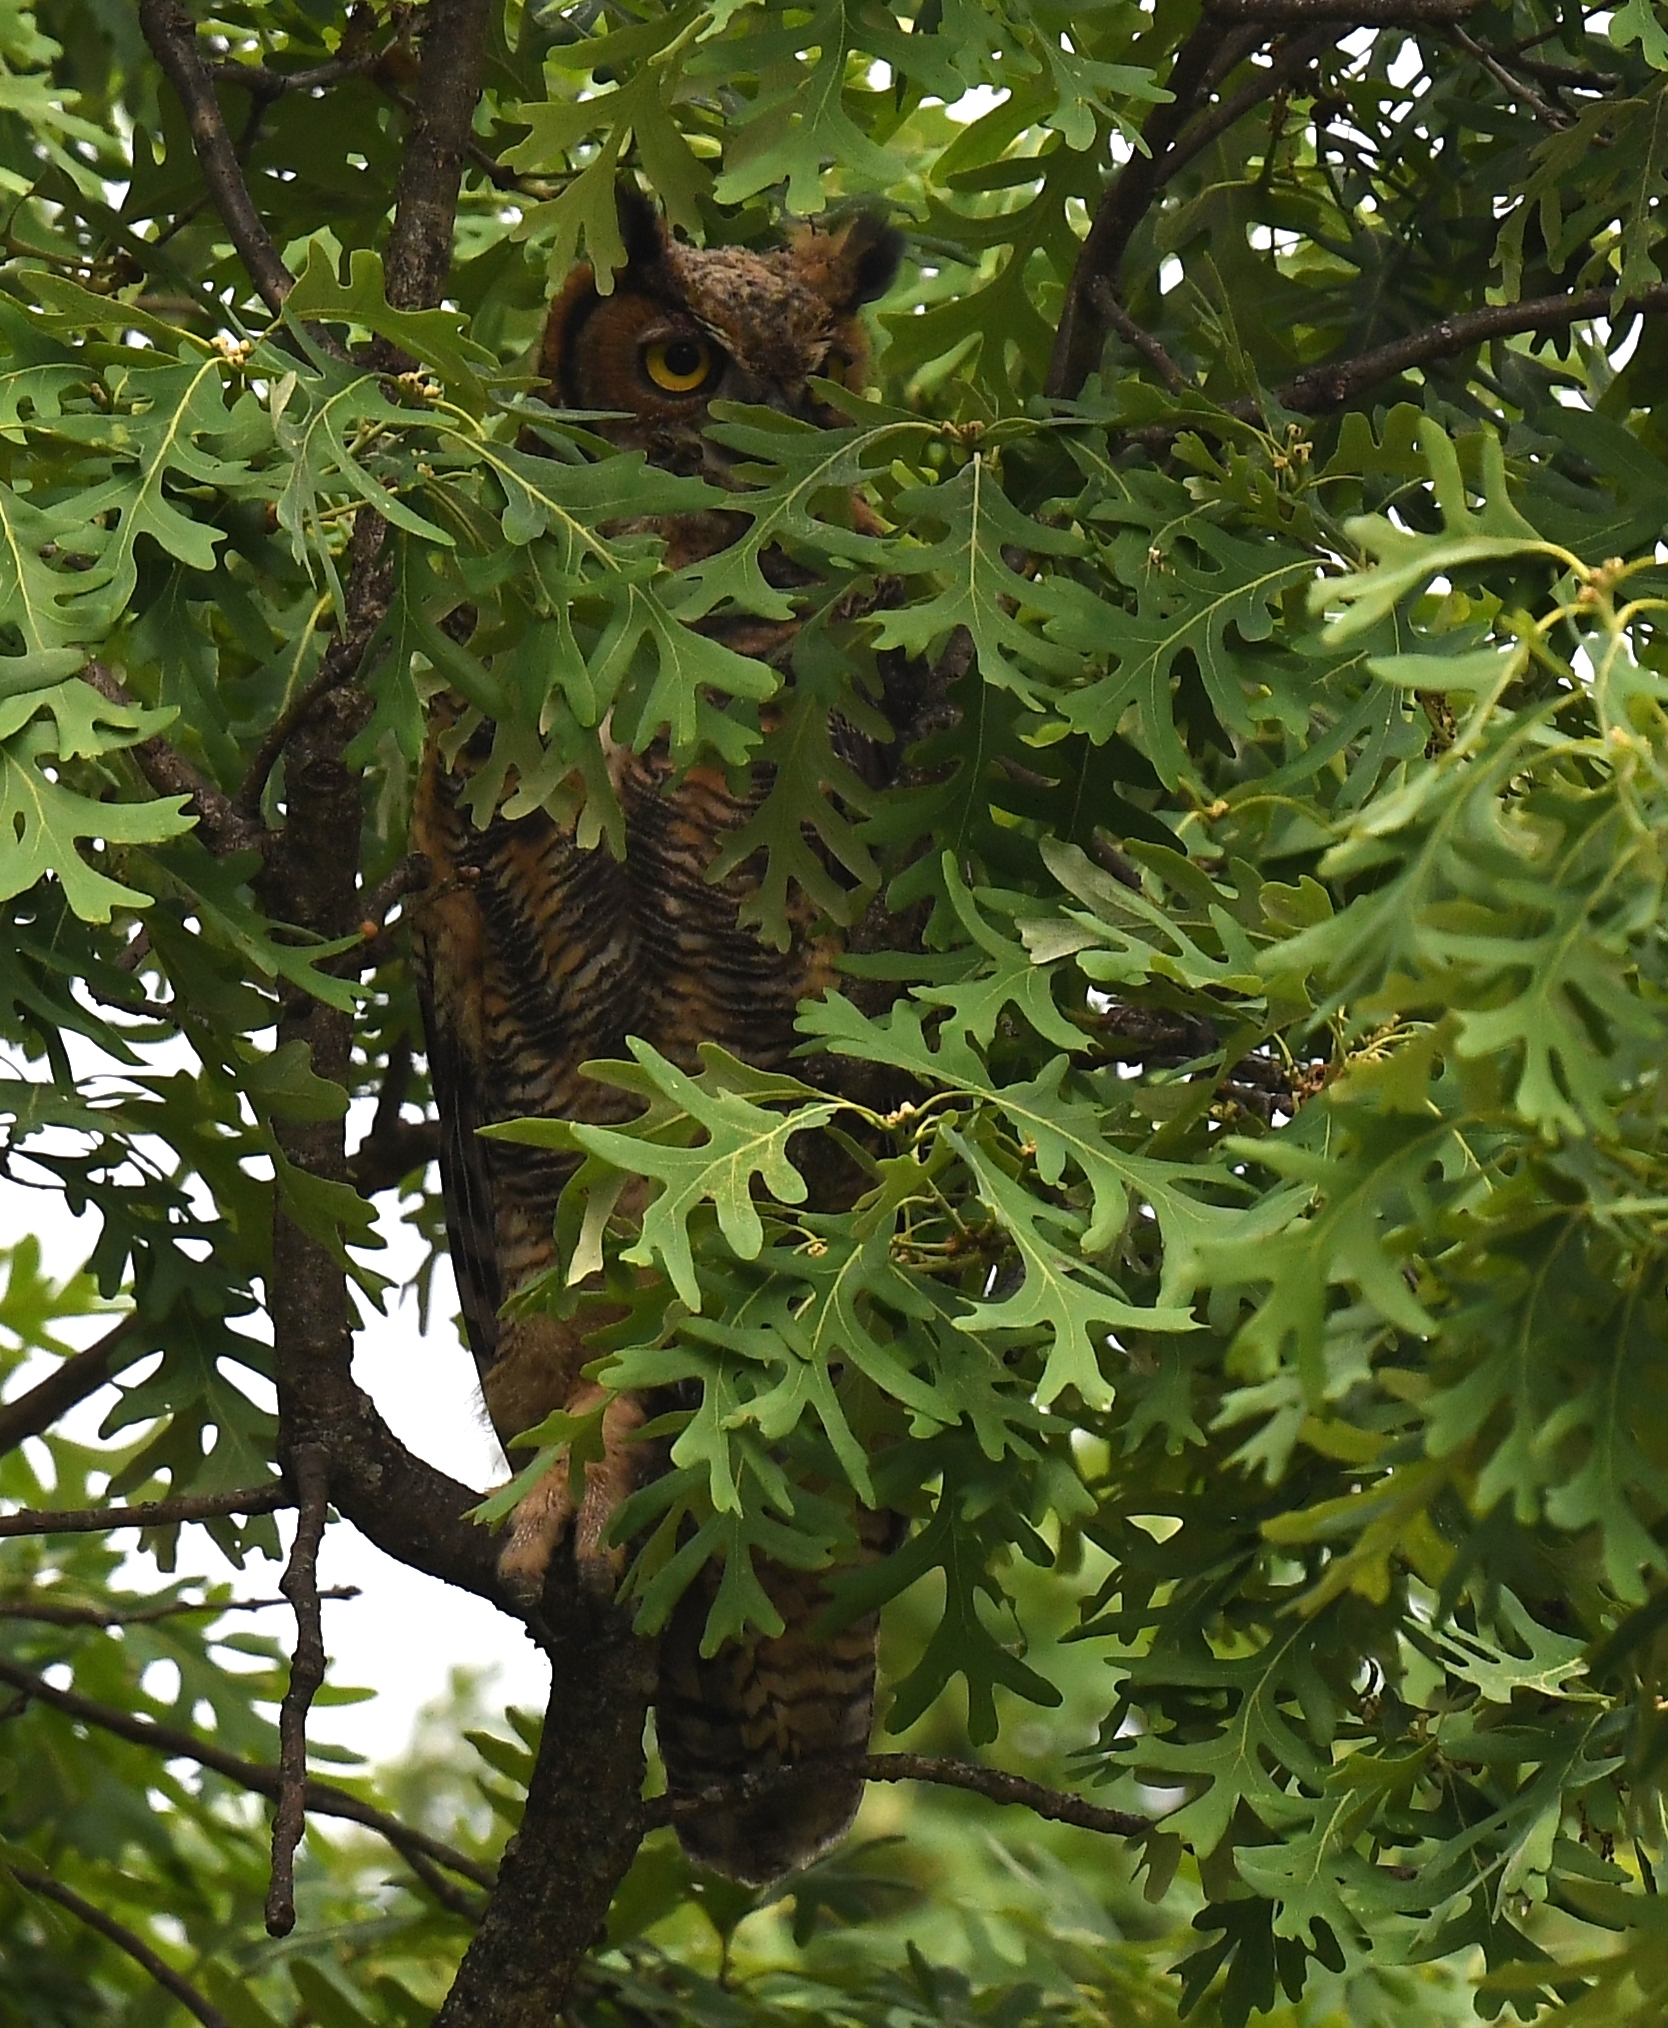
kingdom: Animalia
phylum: Chordata
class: Aves
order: Strigiformes
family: Strigidae
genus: Bubo
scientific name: Bubo virginianus
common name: Great horned owl
